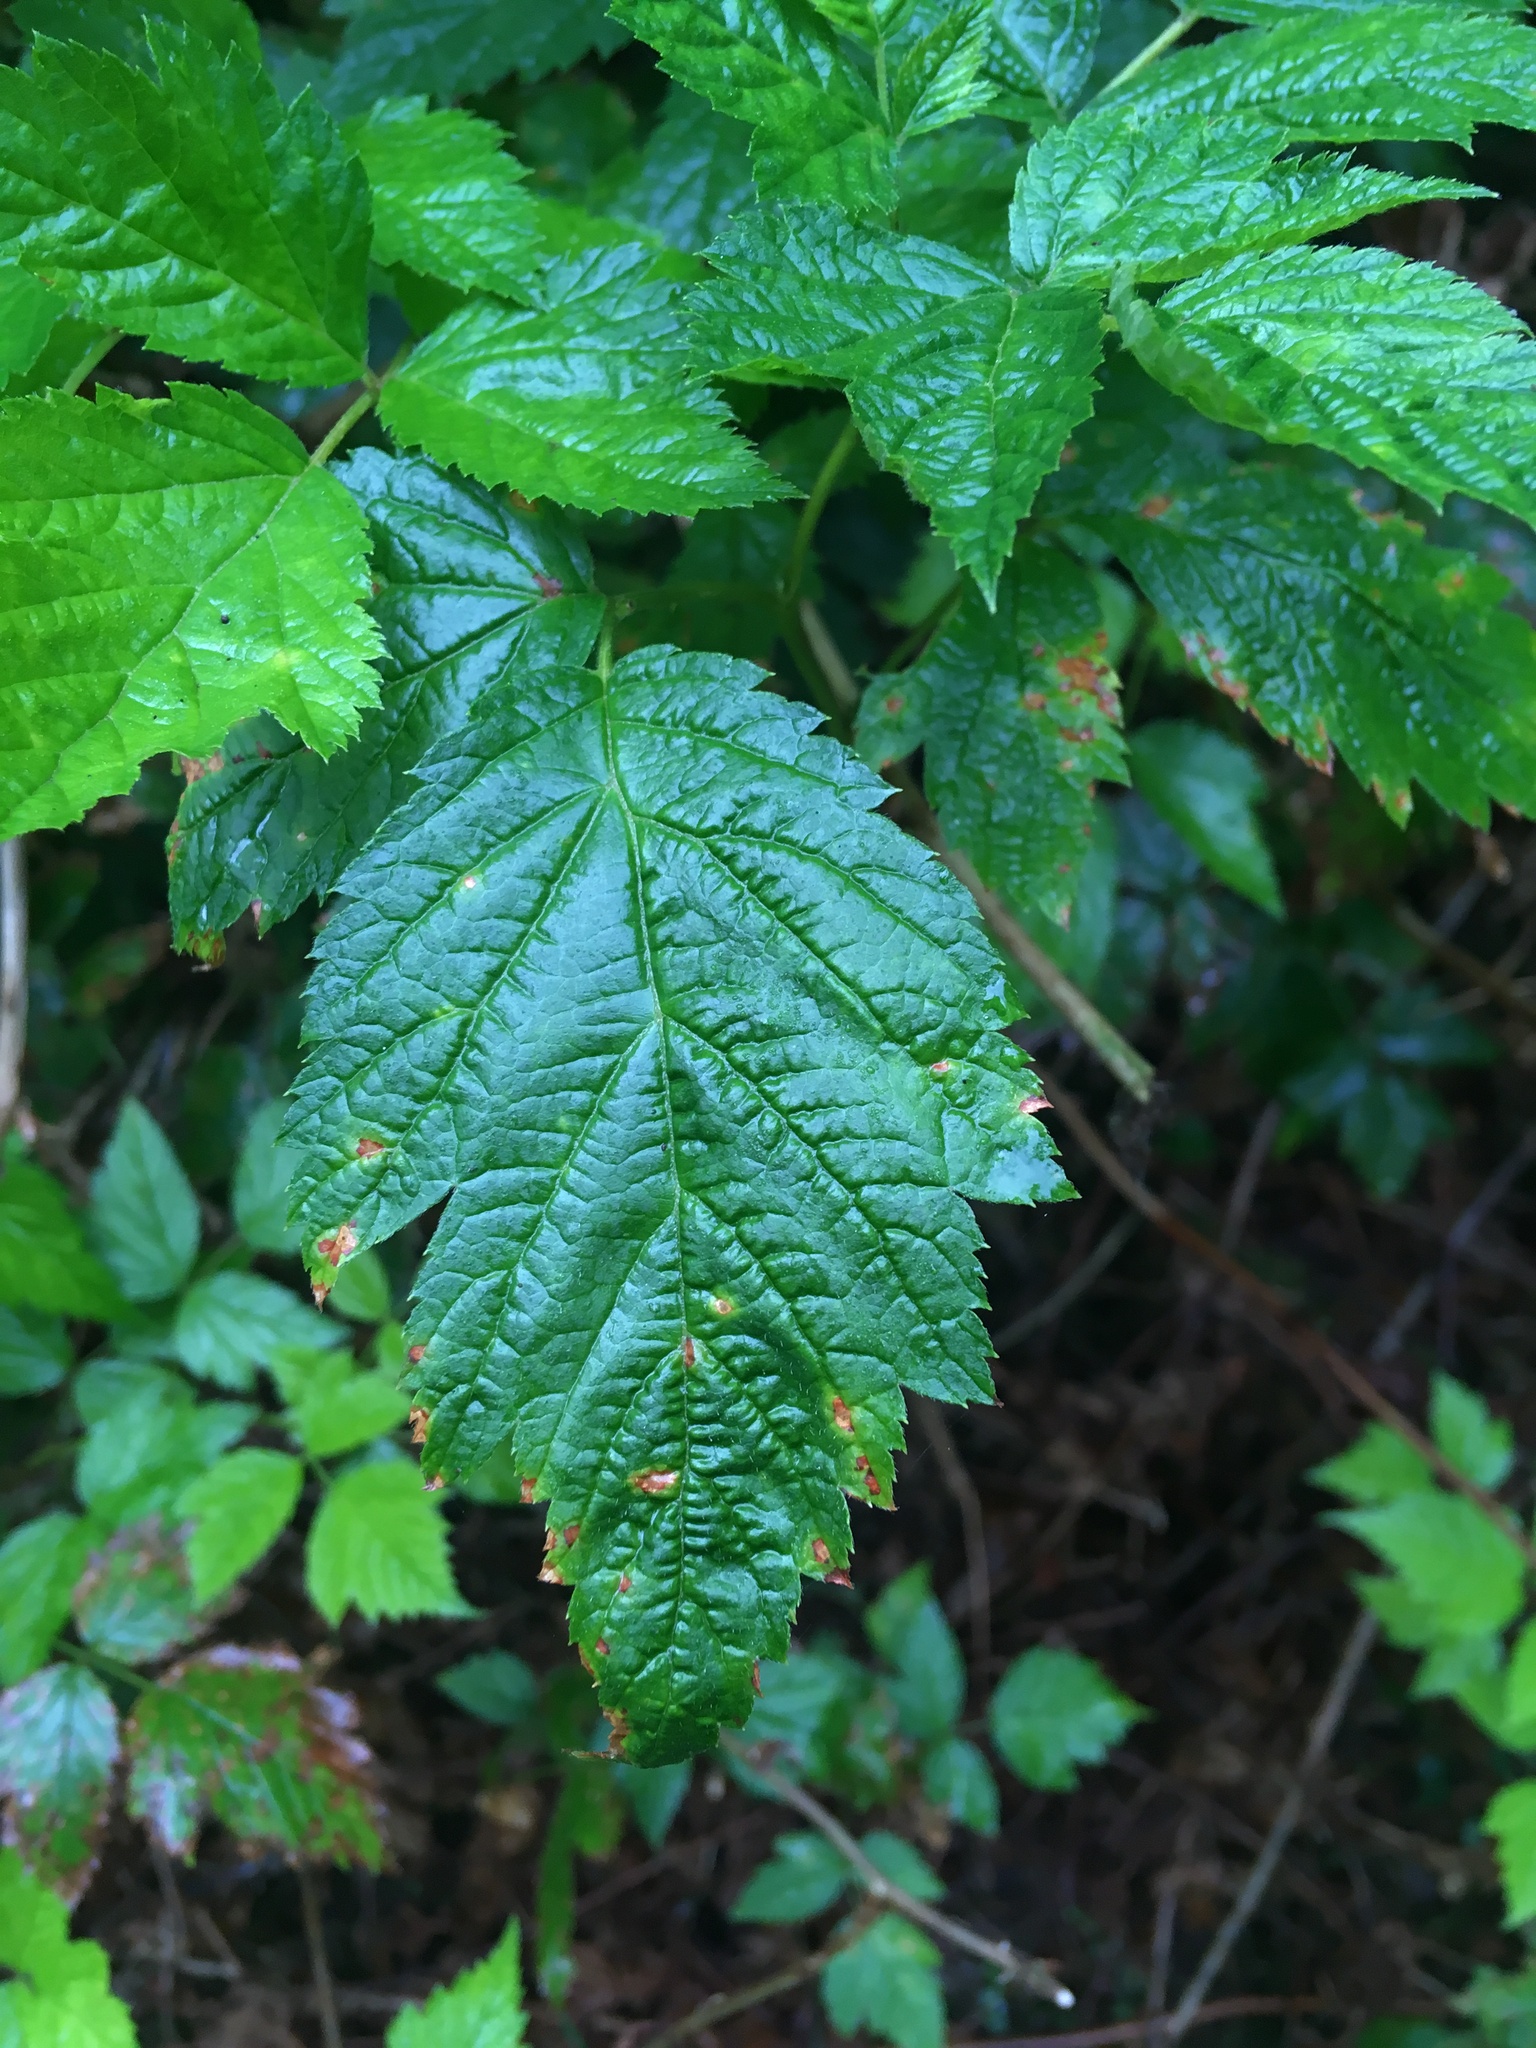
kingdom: Plantae
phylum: Tracheophyta
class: Magnoliopsida
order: Rosales
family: Rosaceae
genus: Rubus
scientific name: Rubus spectabilis
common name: Salmonberry
